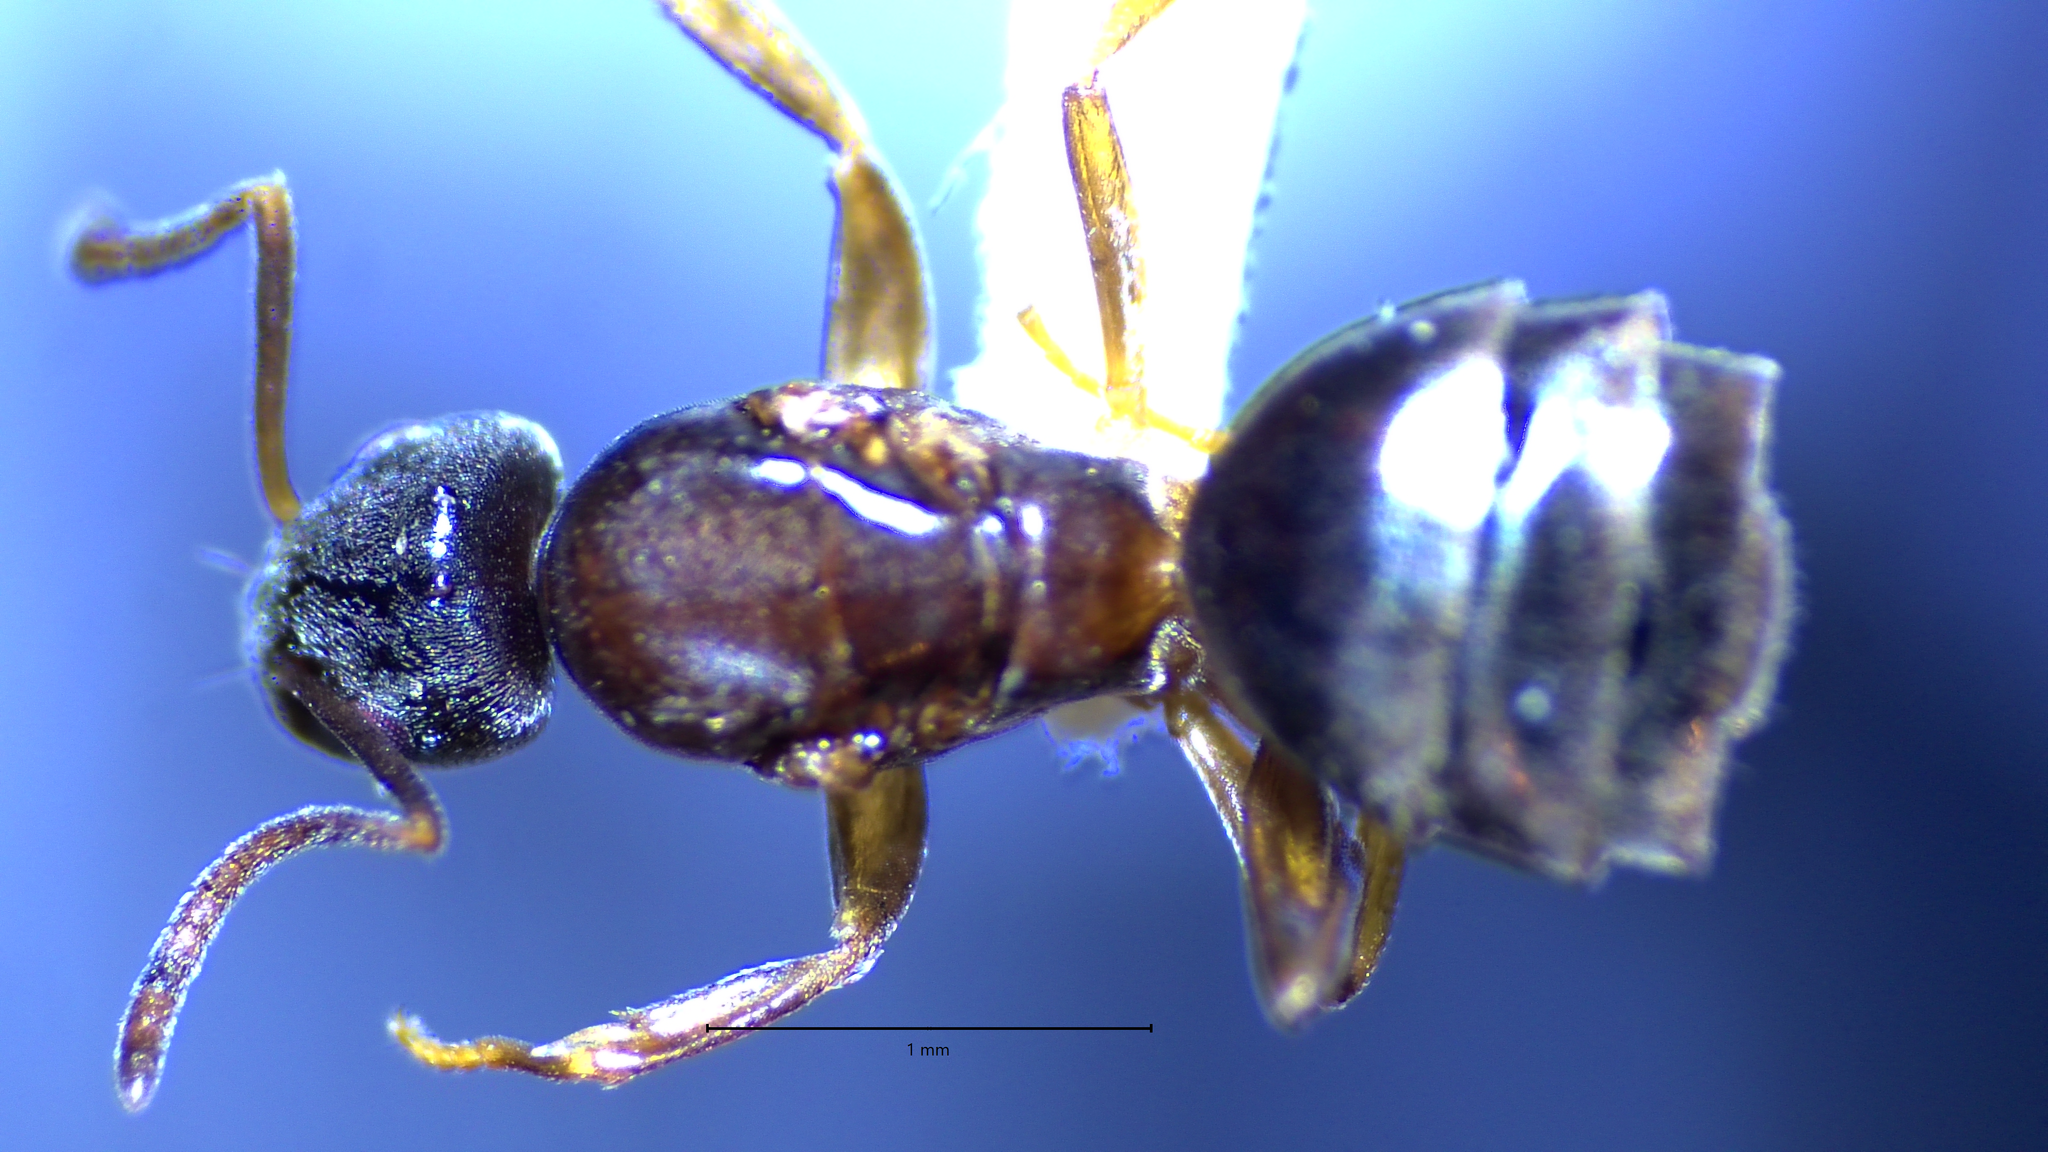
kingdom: Animalia
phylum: Arthropoda
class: Insecta
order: Hymenoptera
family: Formicidae
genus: Tapinoma
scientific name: Tapinoma sessile
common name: Odorous house ant
